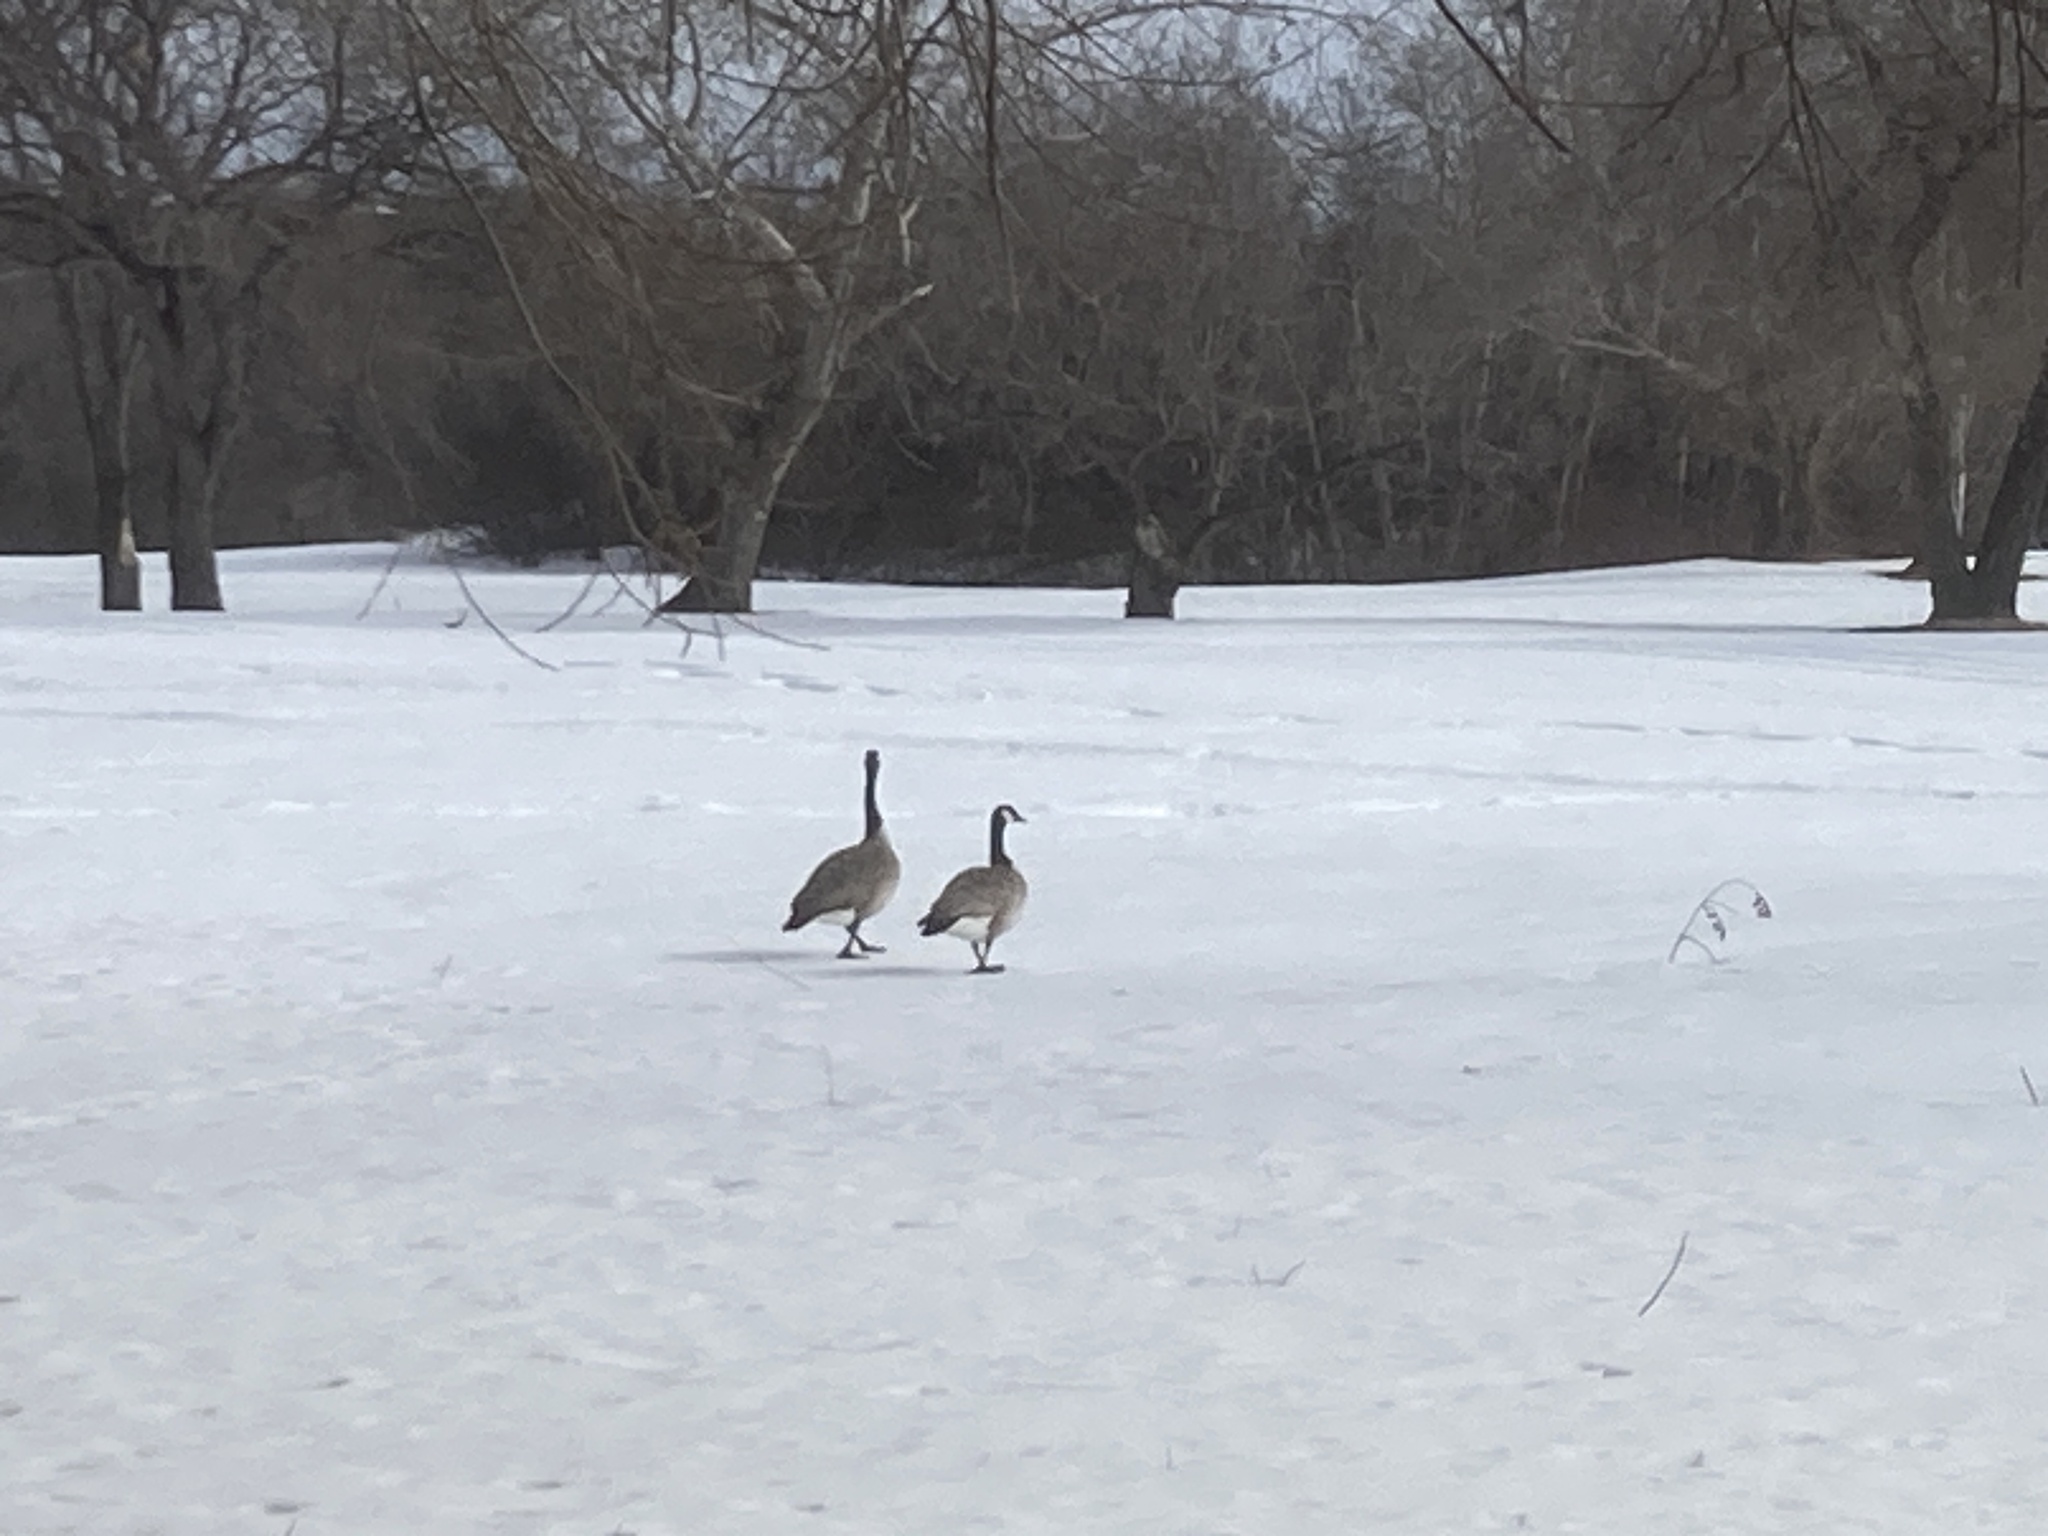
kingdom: Animalia
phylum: Chordata
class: Aves
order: Anseriformes
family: Anatidae
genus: Branta
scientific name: Branta canadensis
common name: Canada goose
